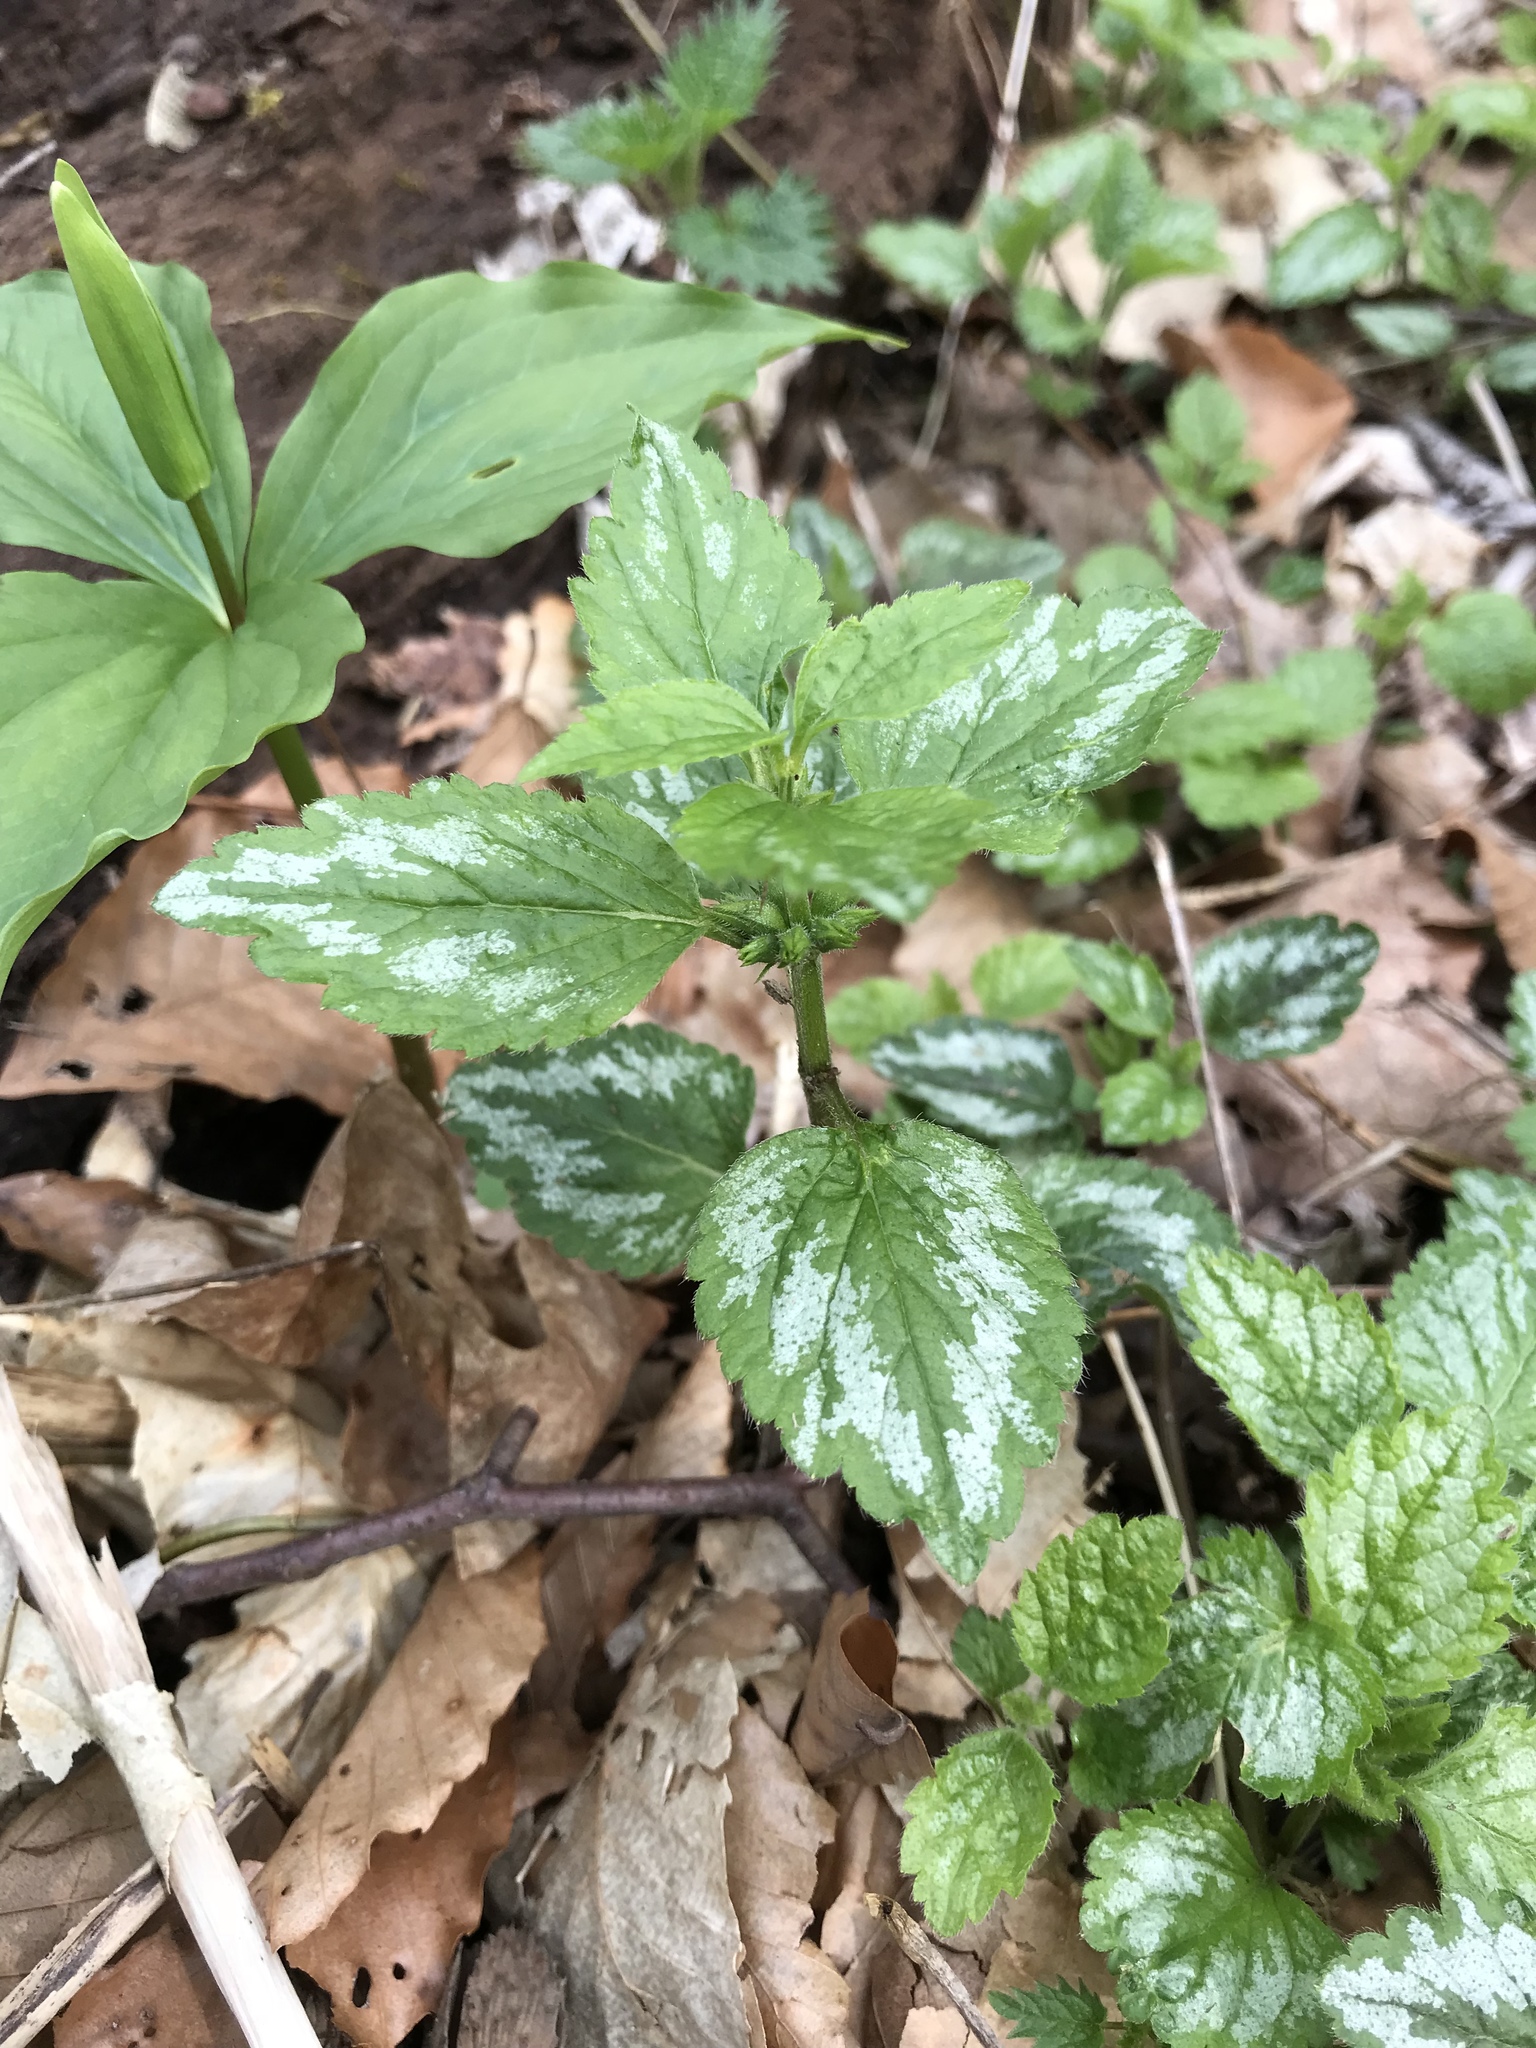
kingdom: Plantae
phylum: Tracheophyta
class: Magnoliopsida
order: Lamiales
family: Lamiaceae
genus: Lamium
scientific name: Lamium galeobdolon
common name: Yellow archangel
